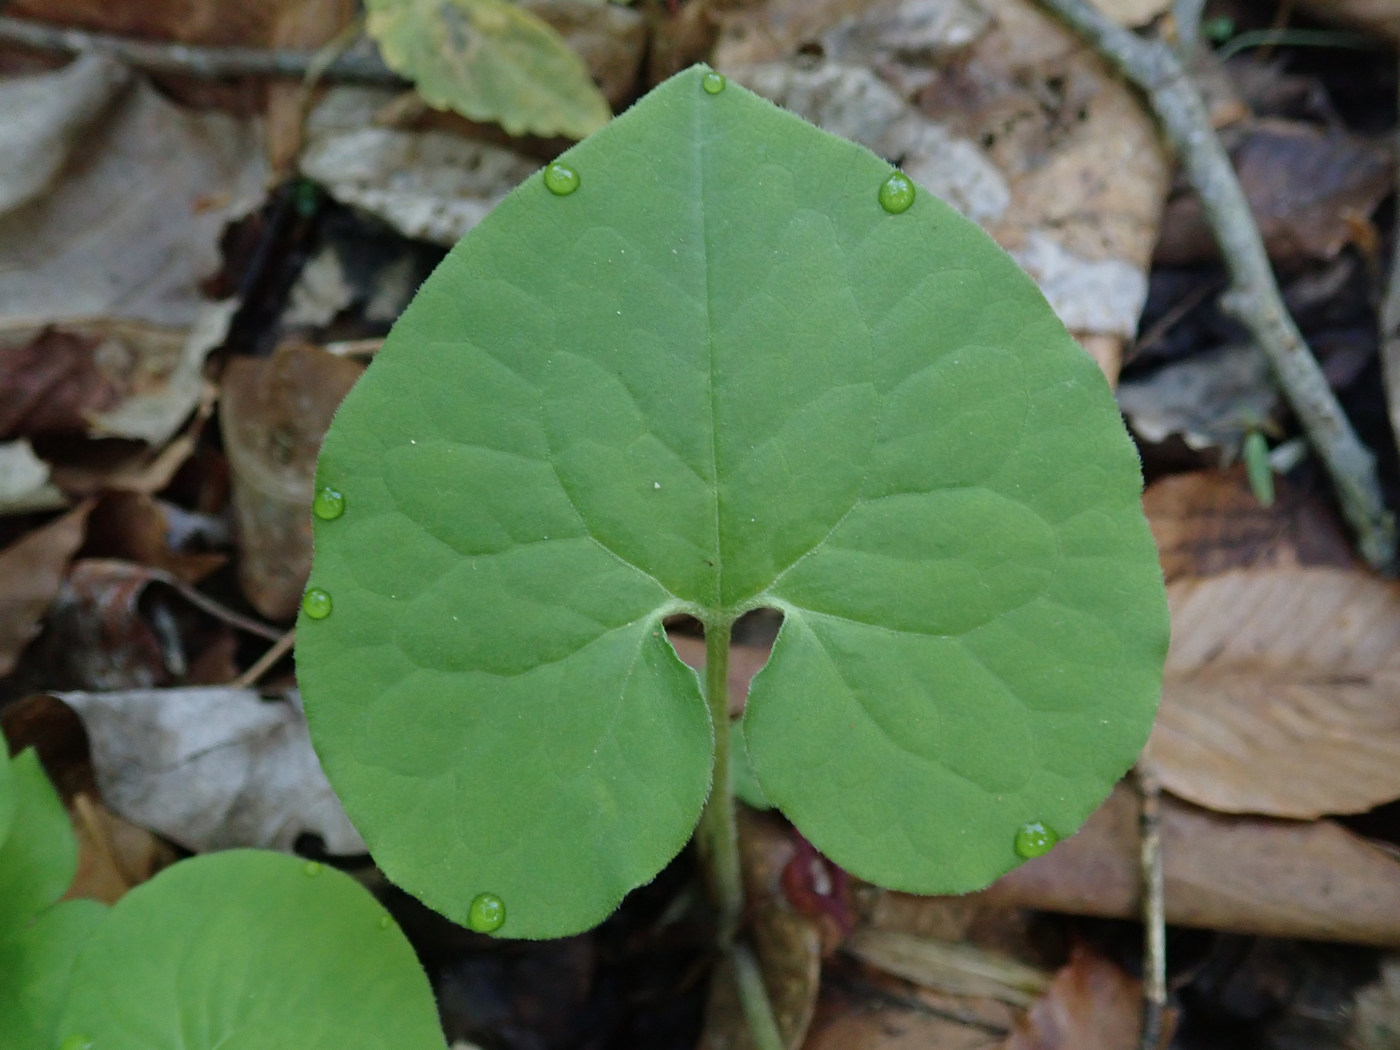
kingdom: Plantae
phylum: Tracheophyta
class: Magnoliopsida
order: Piperales
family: Aristolochiaceae
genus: Asarum
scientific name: Asarum canadense
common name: Wild ginger
